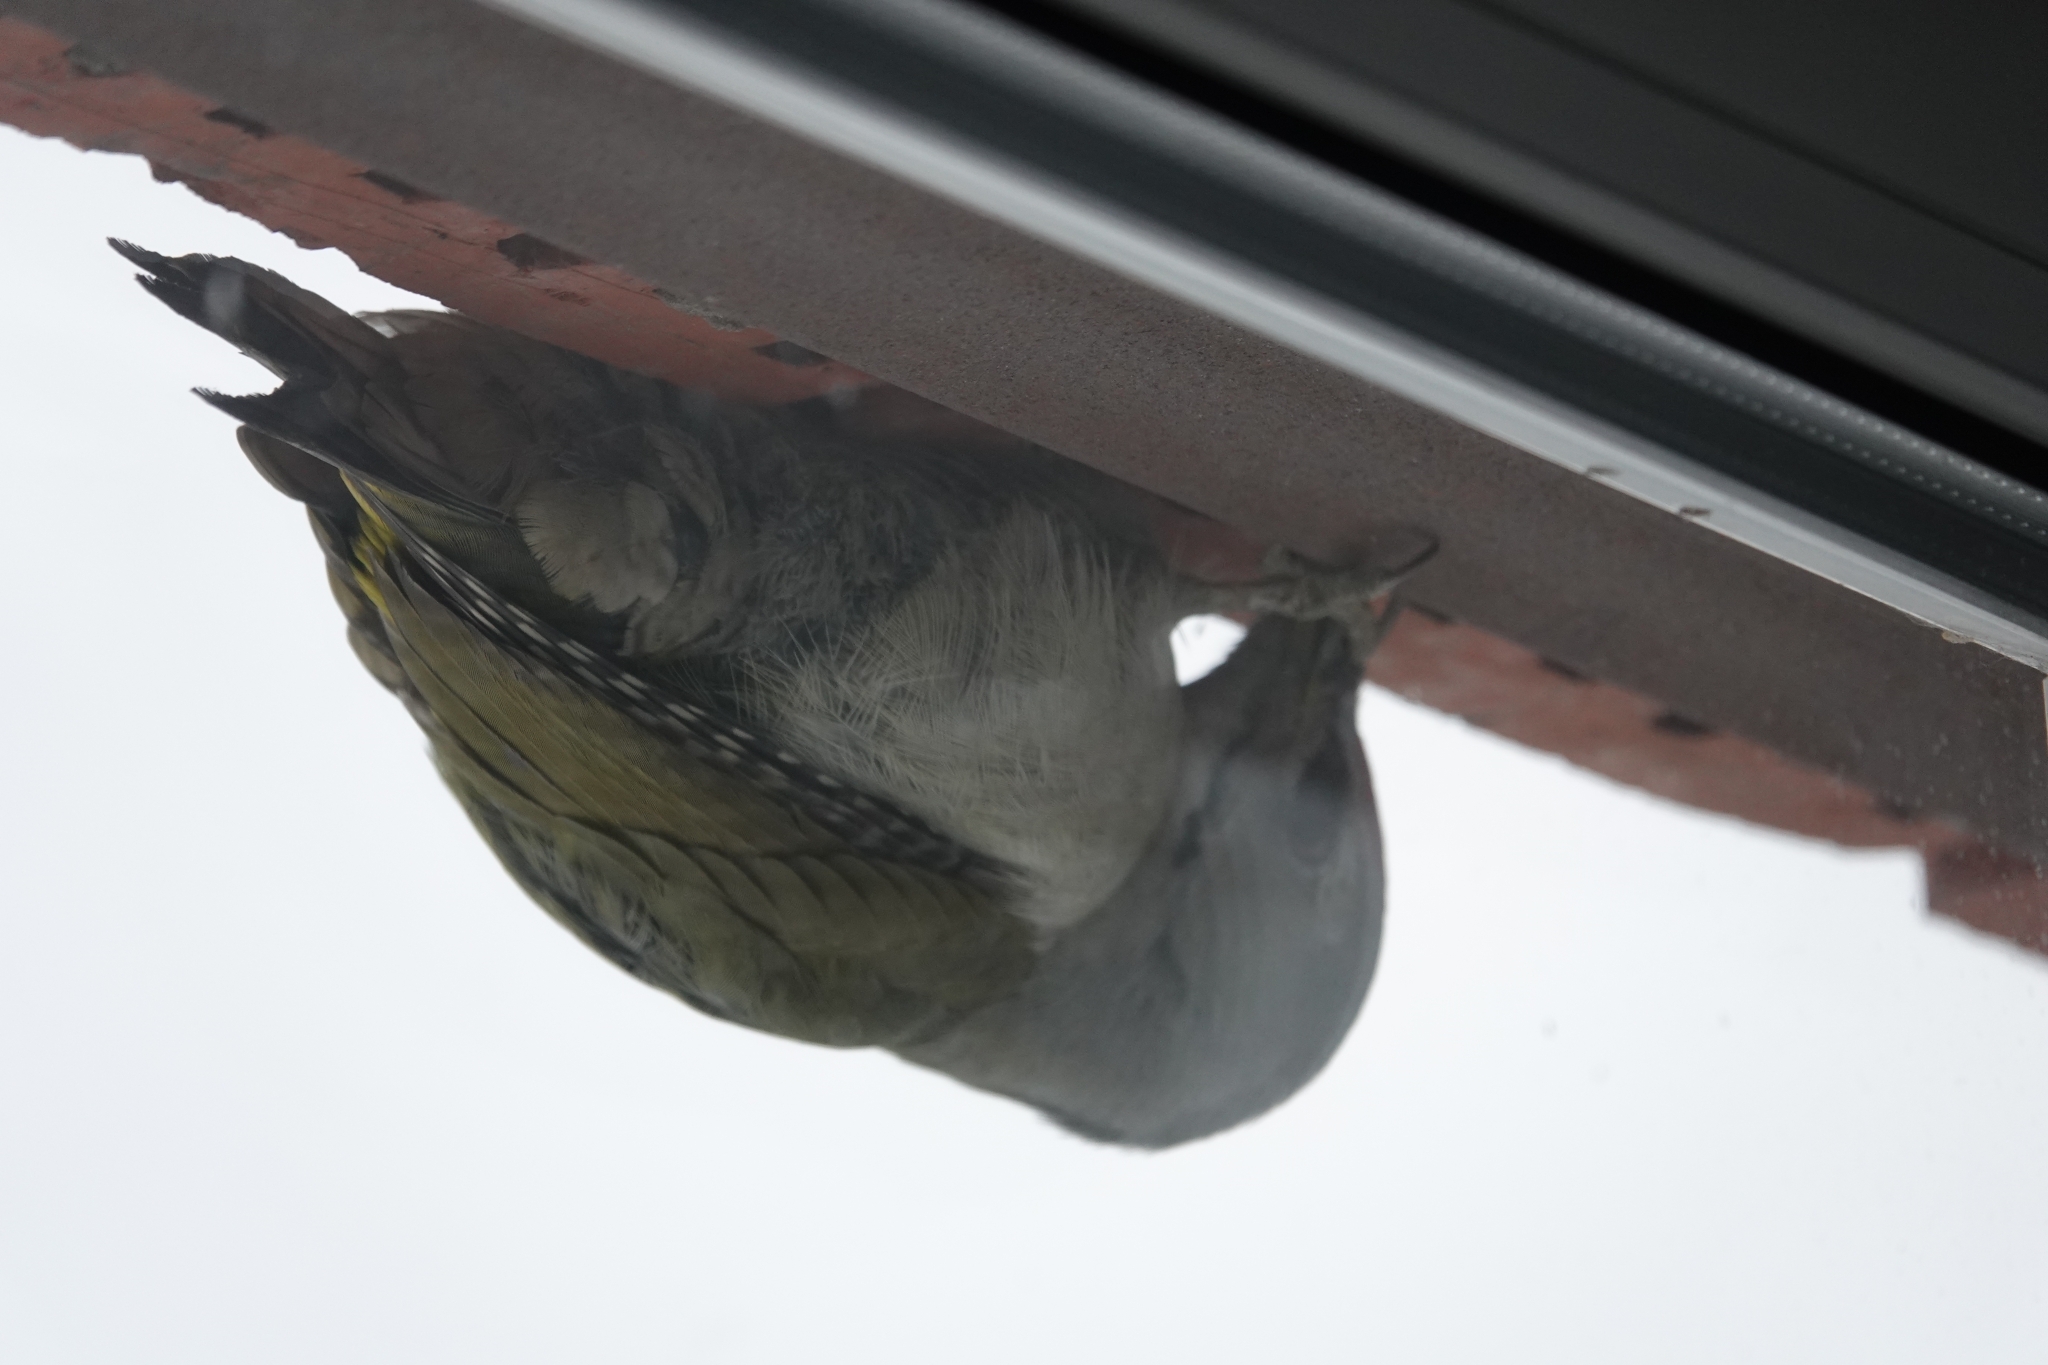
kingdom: Animalia
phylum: Chordata
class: Aves
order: Piciformes
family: Picidae
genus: Picus
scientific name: Picus canus
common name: Grey-headed woodpecker
